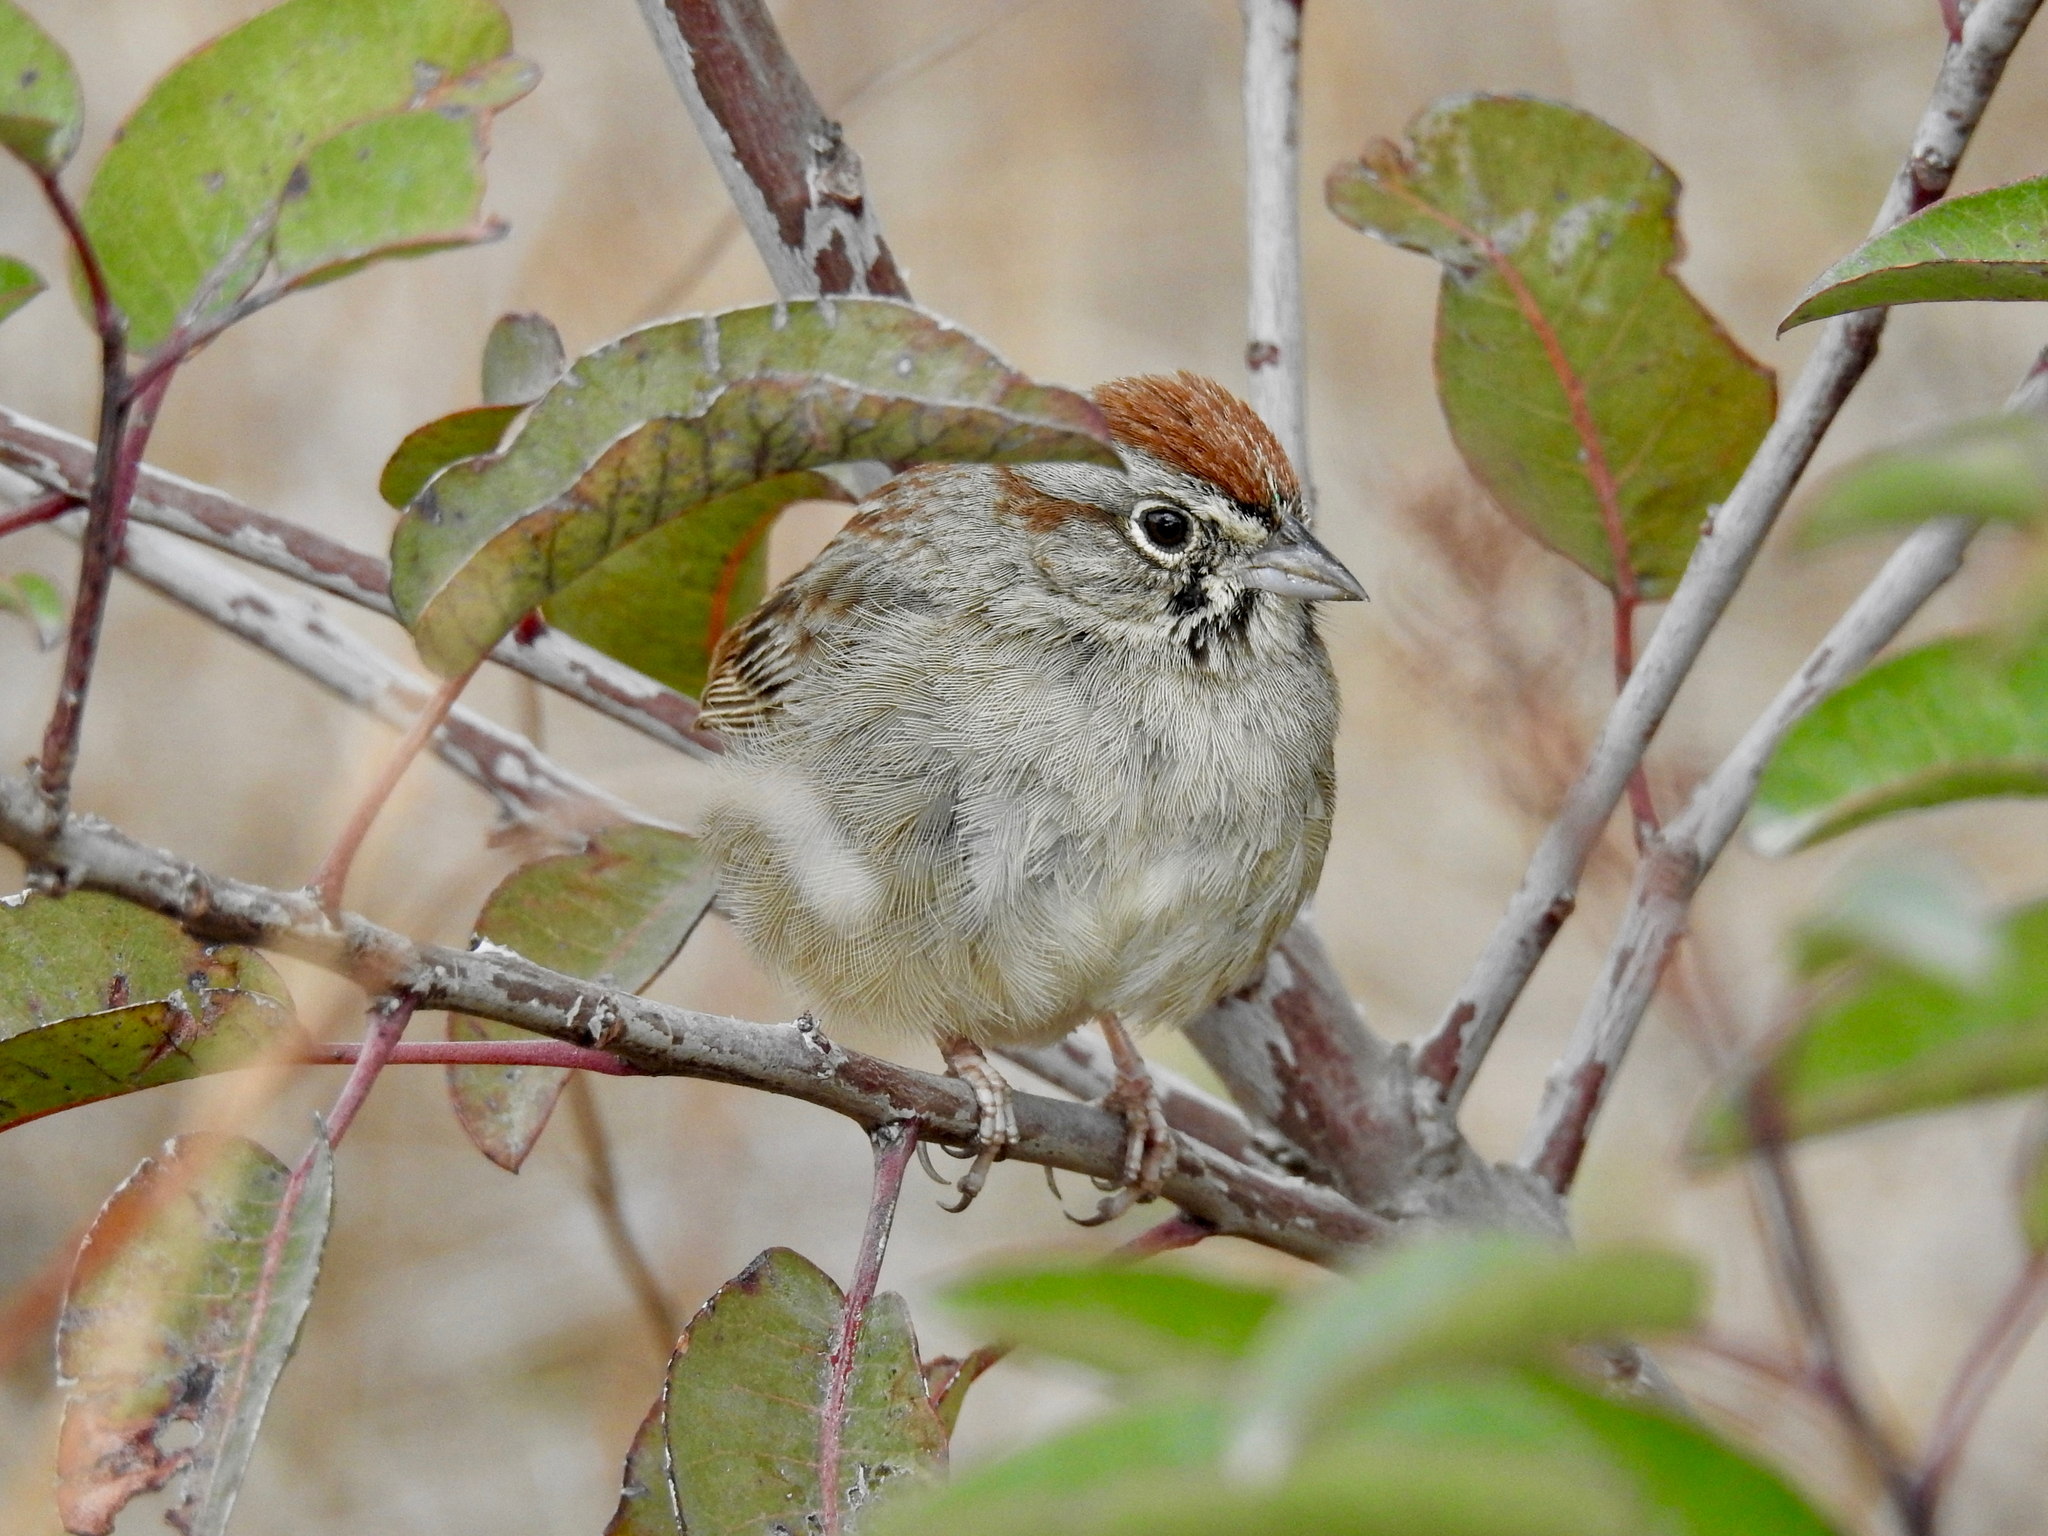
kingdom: Animalia
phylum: Chordata
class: Aves
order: Passeriformes
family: Passerellidae
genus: Aimophila
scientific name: Aimophila ruficeps
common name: Rufous-crowned sparrow
